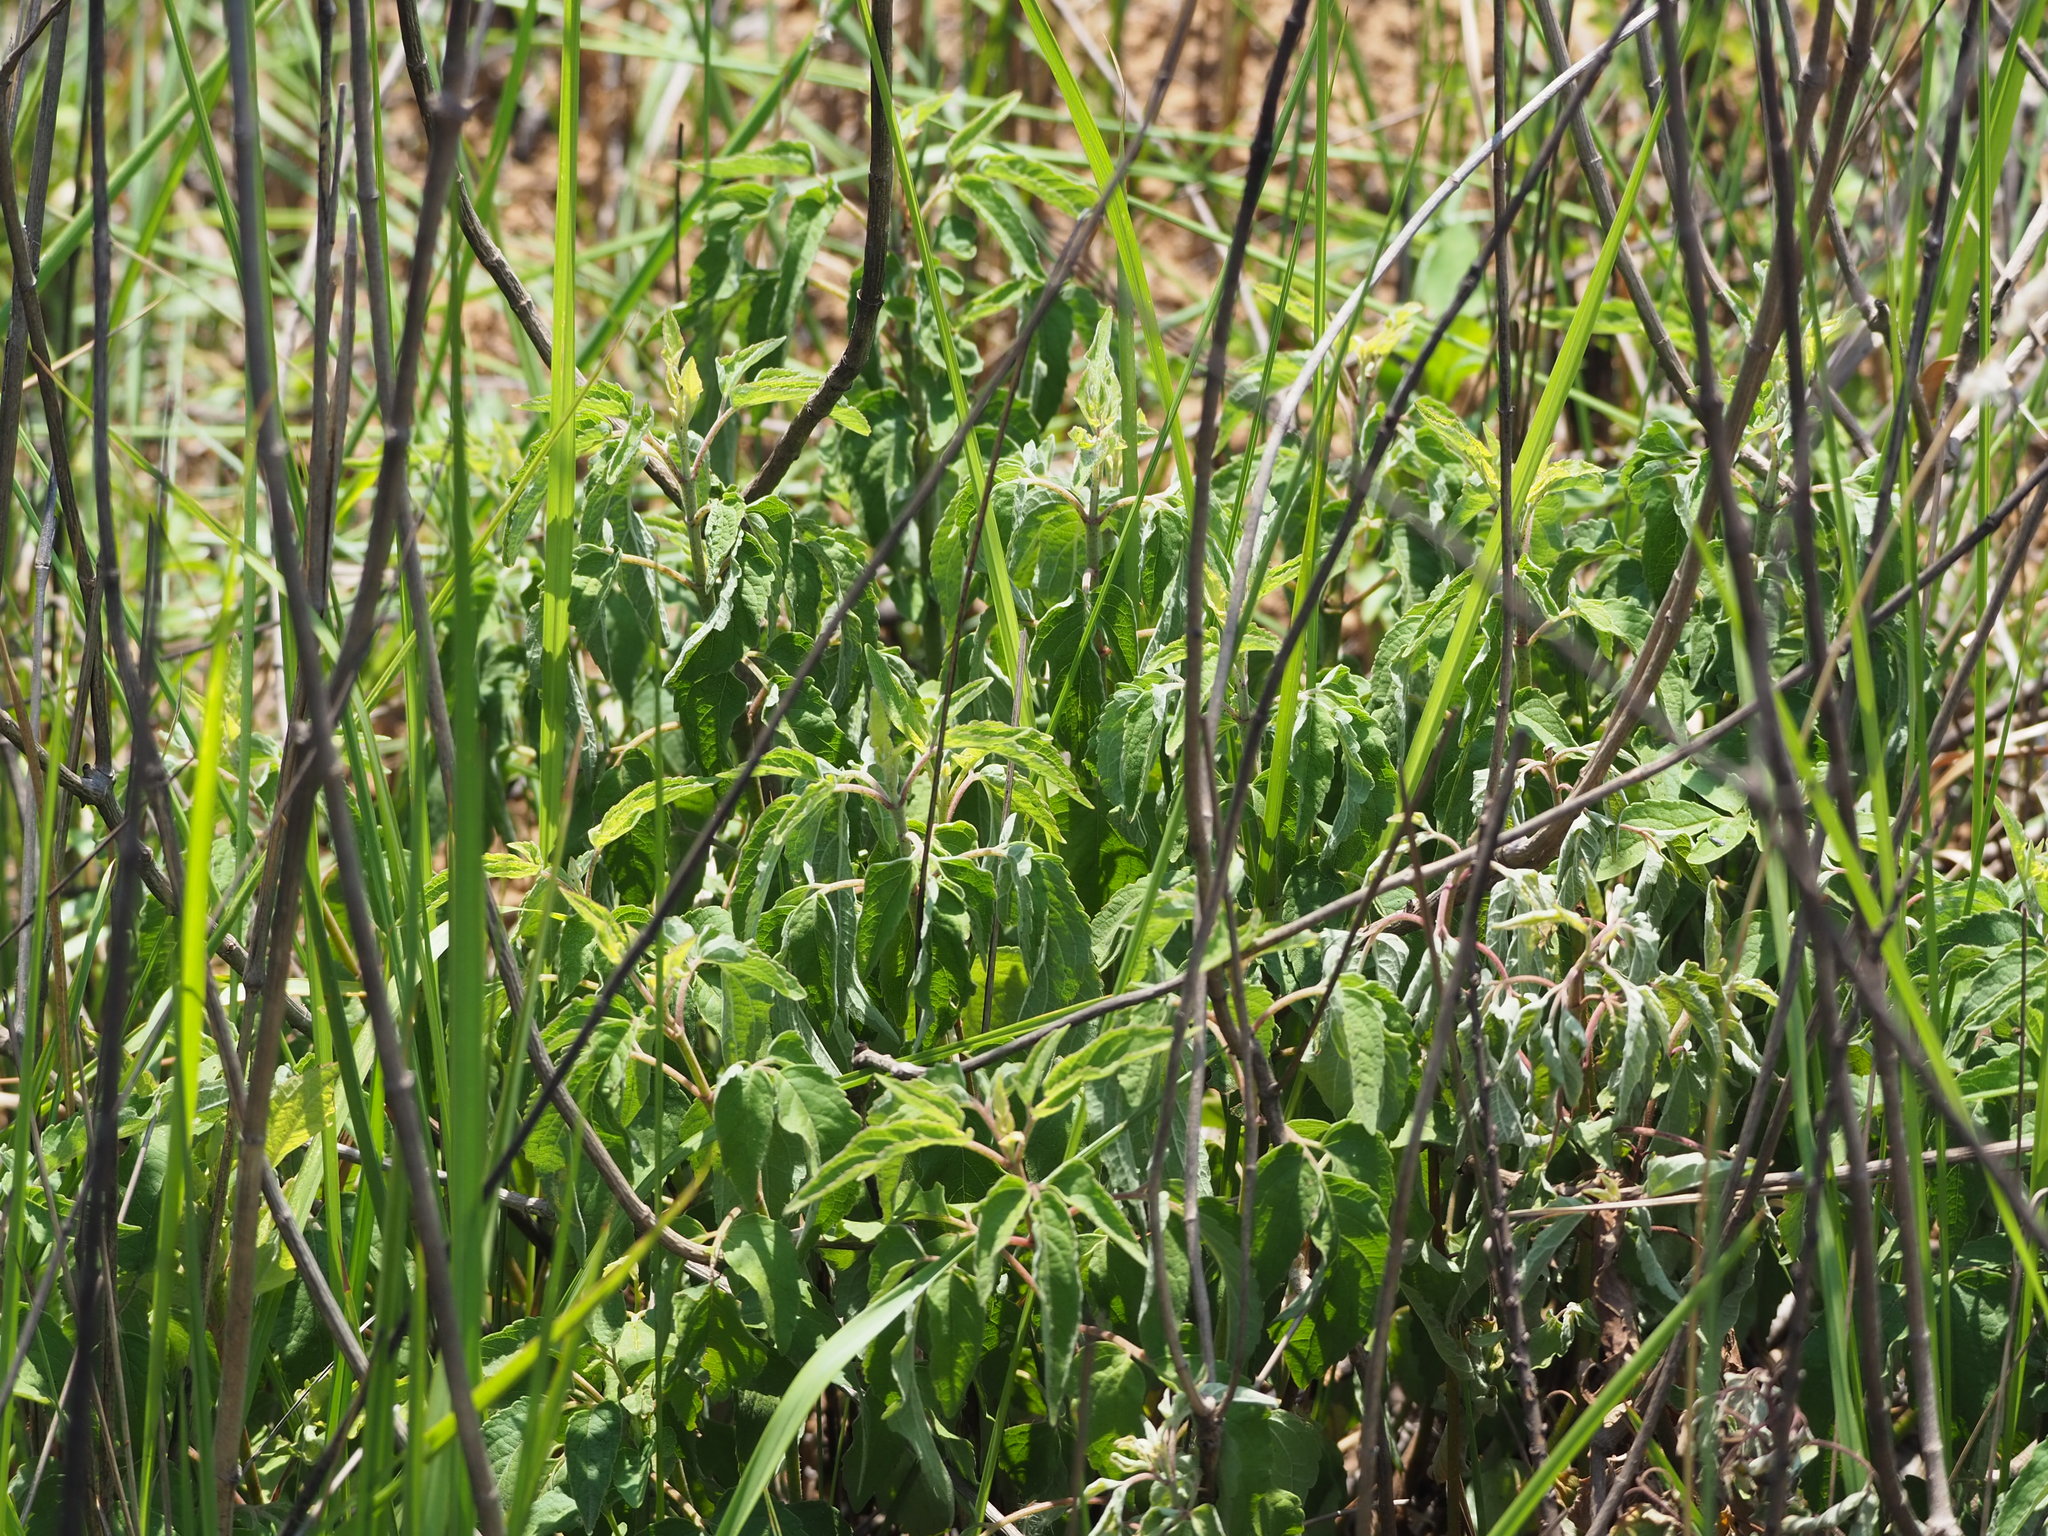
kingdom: Plantae
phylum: Tracheophyta
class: Magnoliopsida
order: Asterales
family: Asteraceae
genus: Eupatorium
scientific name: Eupatorium formosanum
